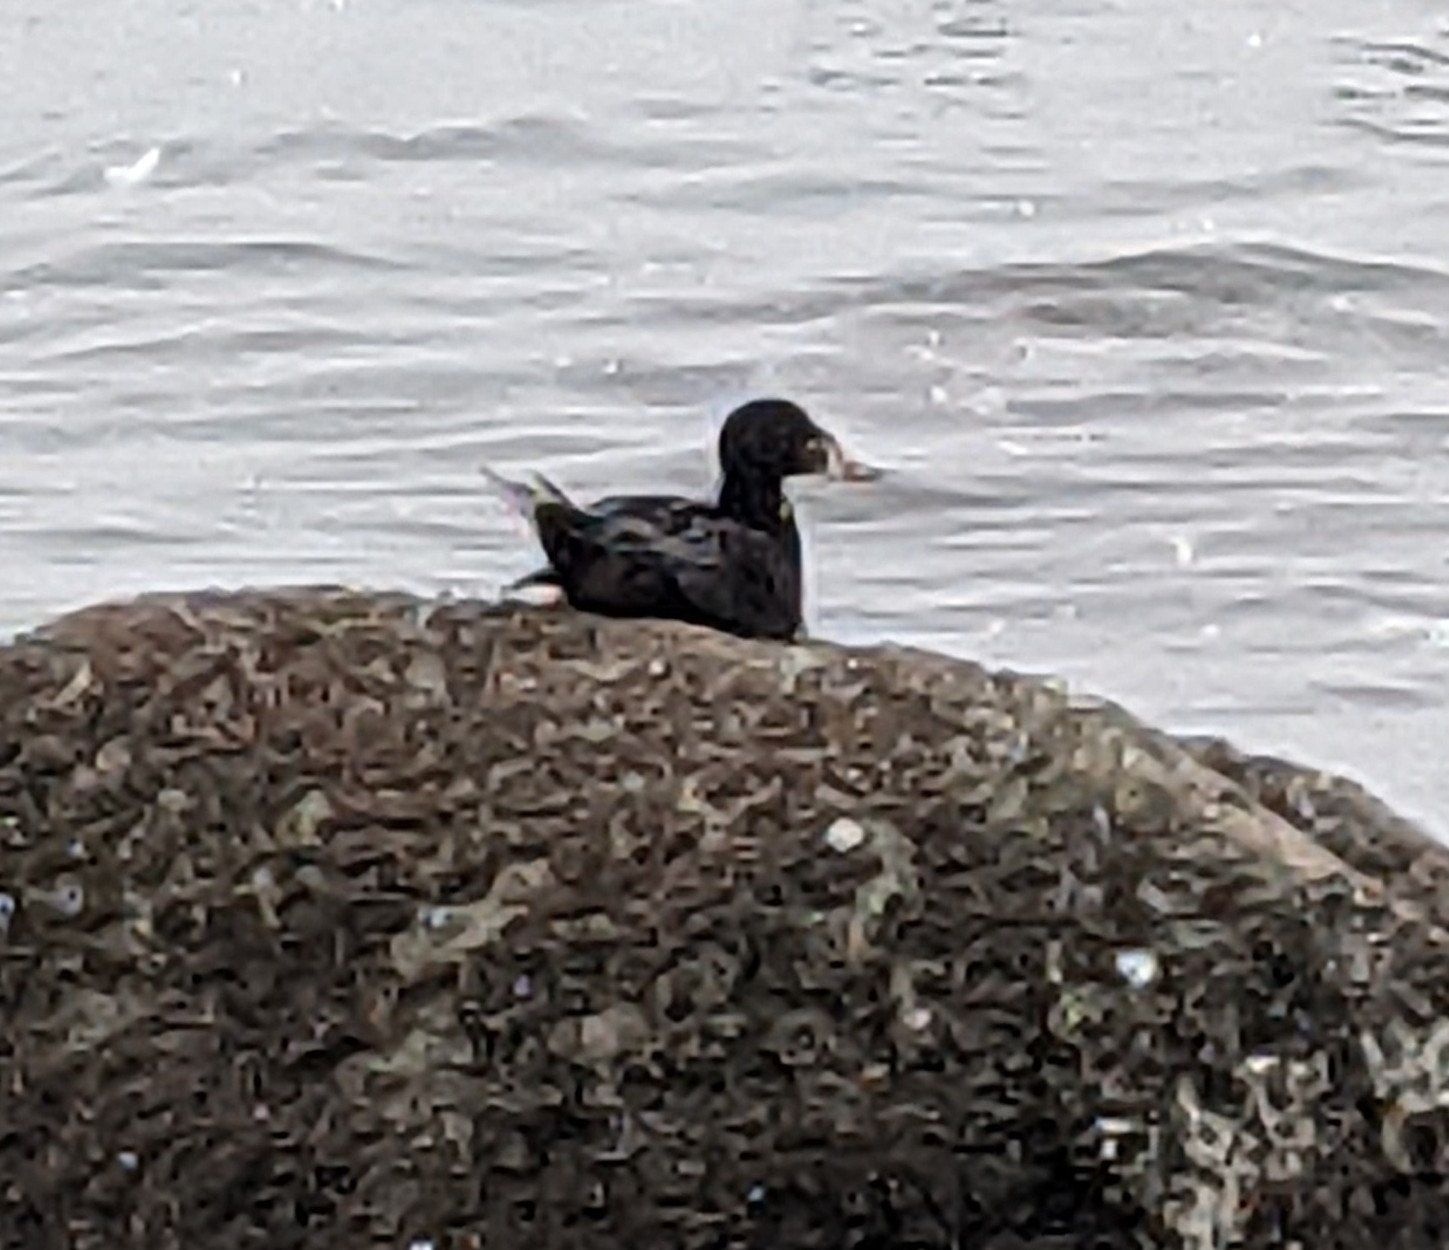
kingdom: Animalia
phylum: Chordata
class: Aves
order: Anseriformes
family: Anatidae
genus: Melanitta
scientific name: Melanitta perspicillata
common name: Surf scoter
